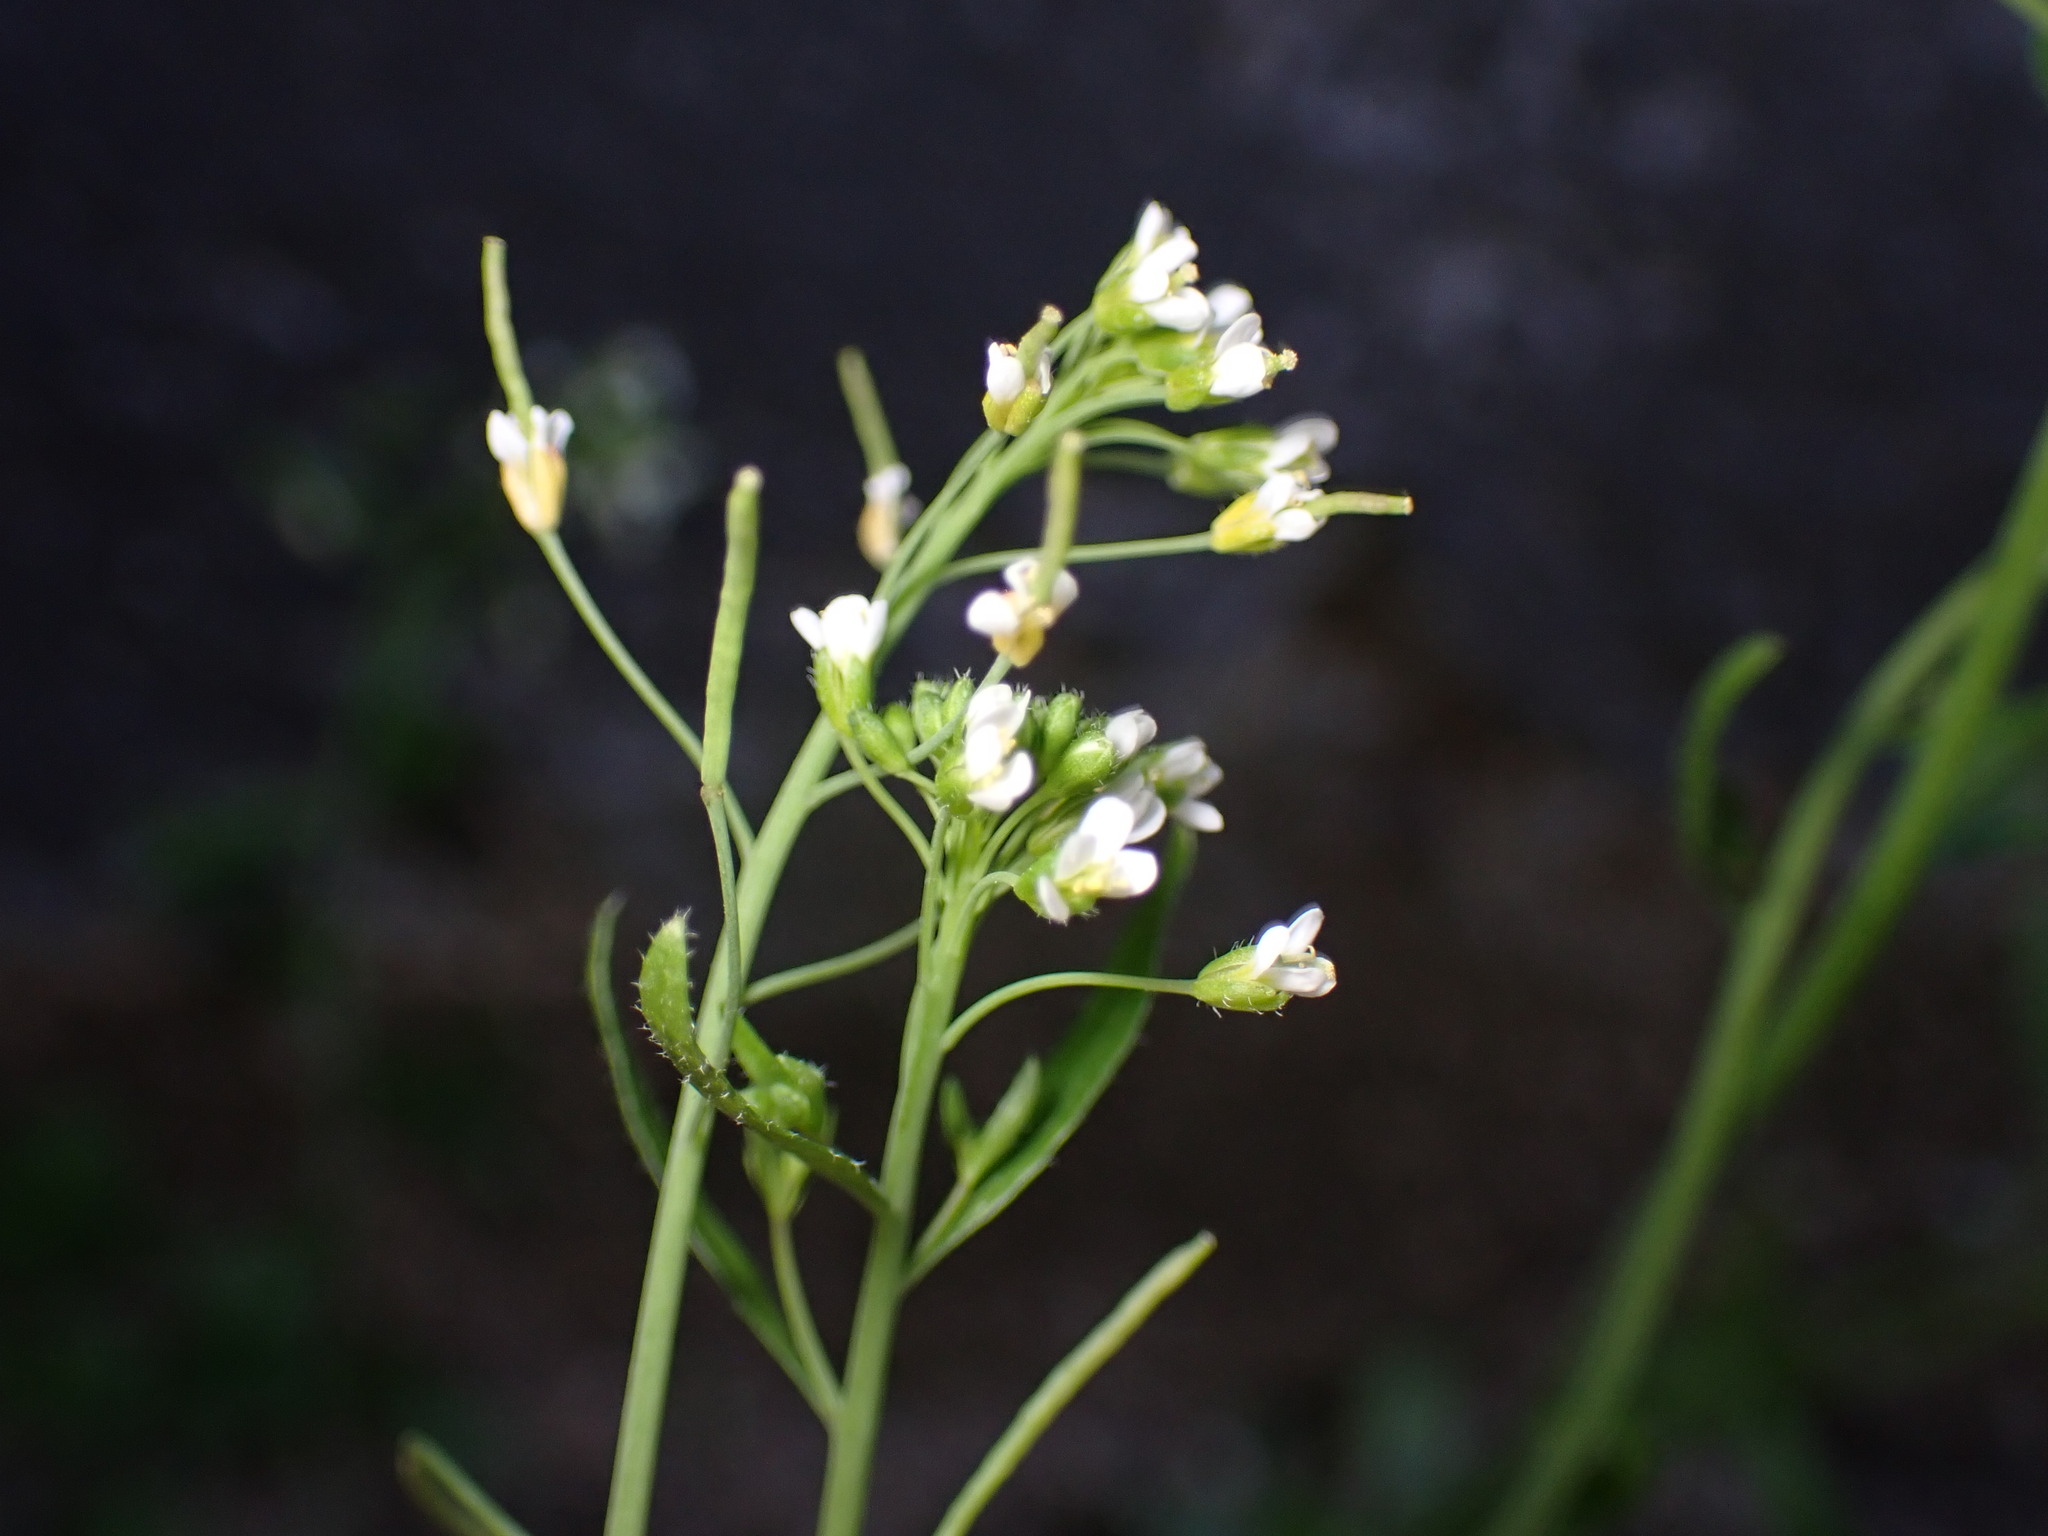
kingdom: Plantae
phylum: Tracheophyta
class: Magnoliopsida
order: Brassicales
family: Brassicaceae
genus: Arabidopsis
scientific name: Arabidopsis thaliana
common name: Thale cress
